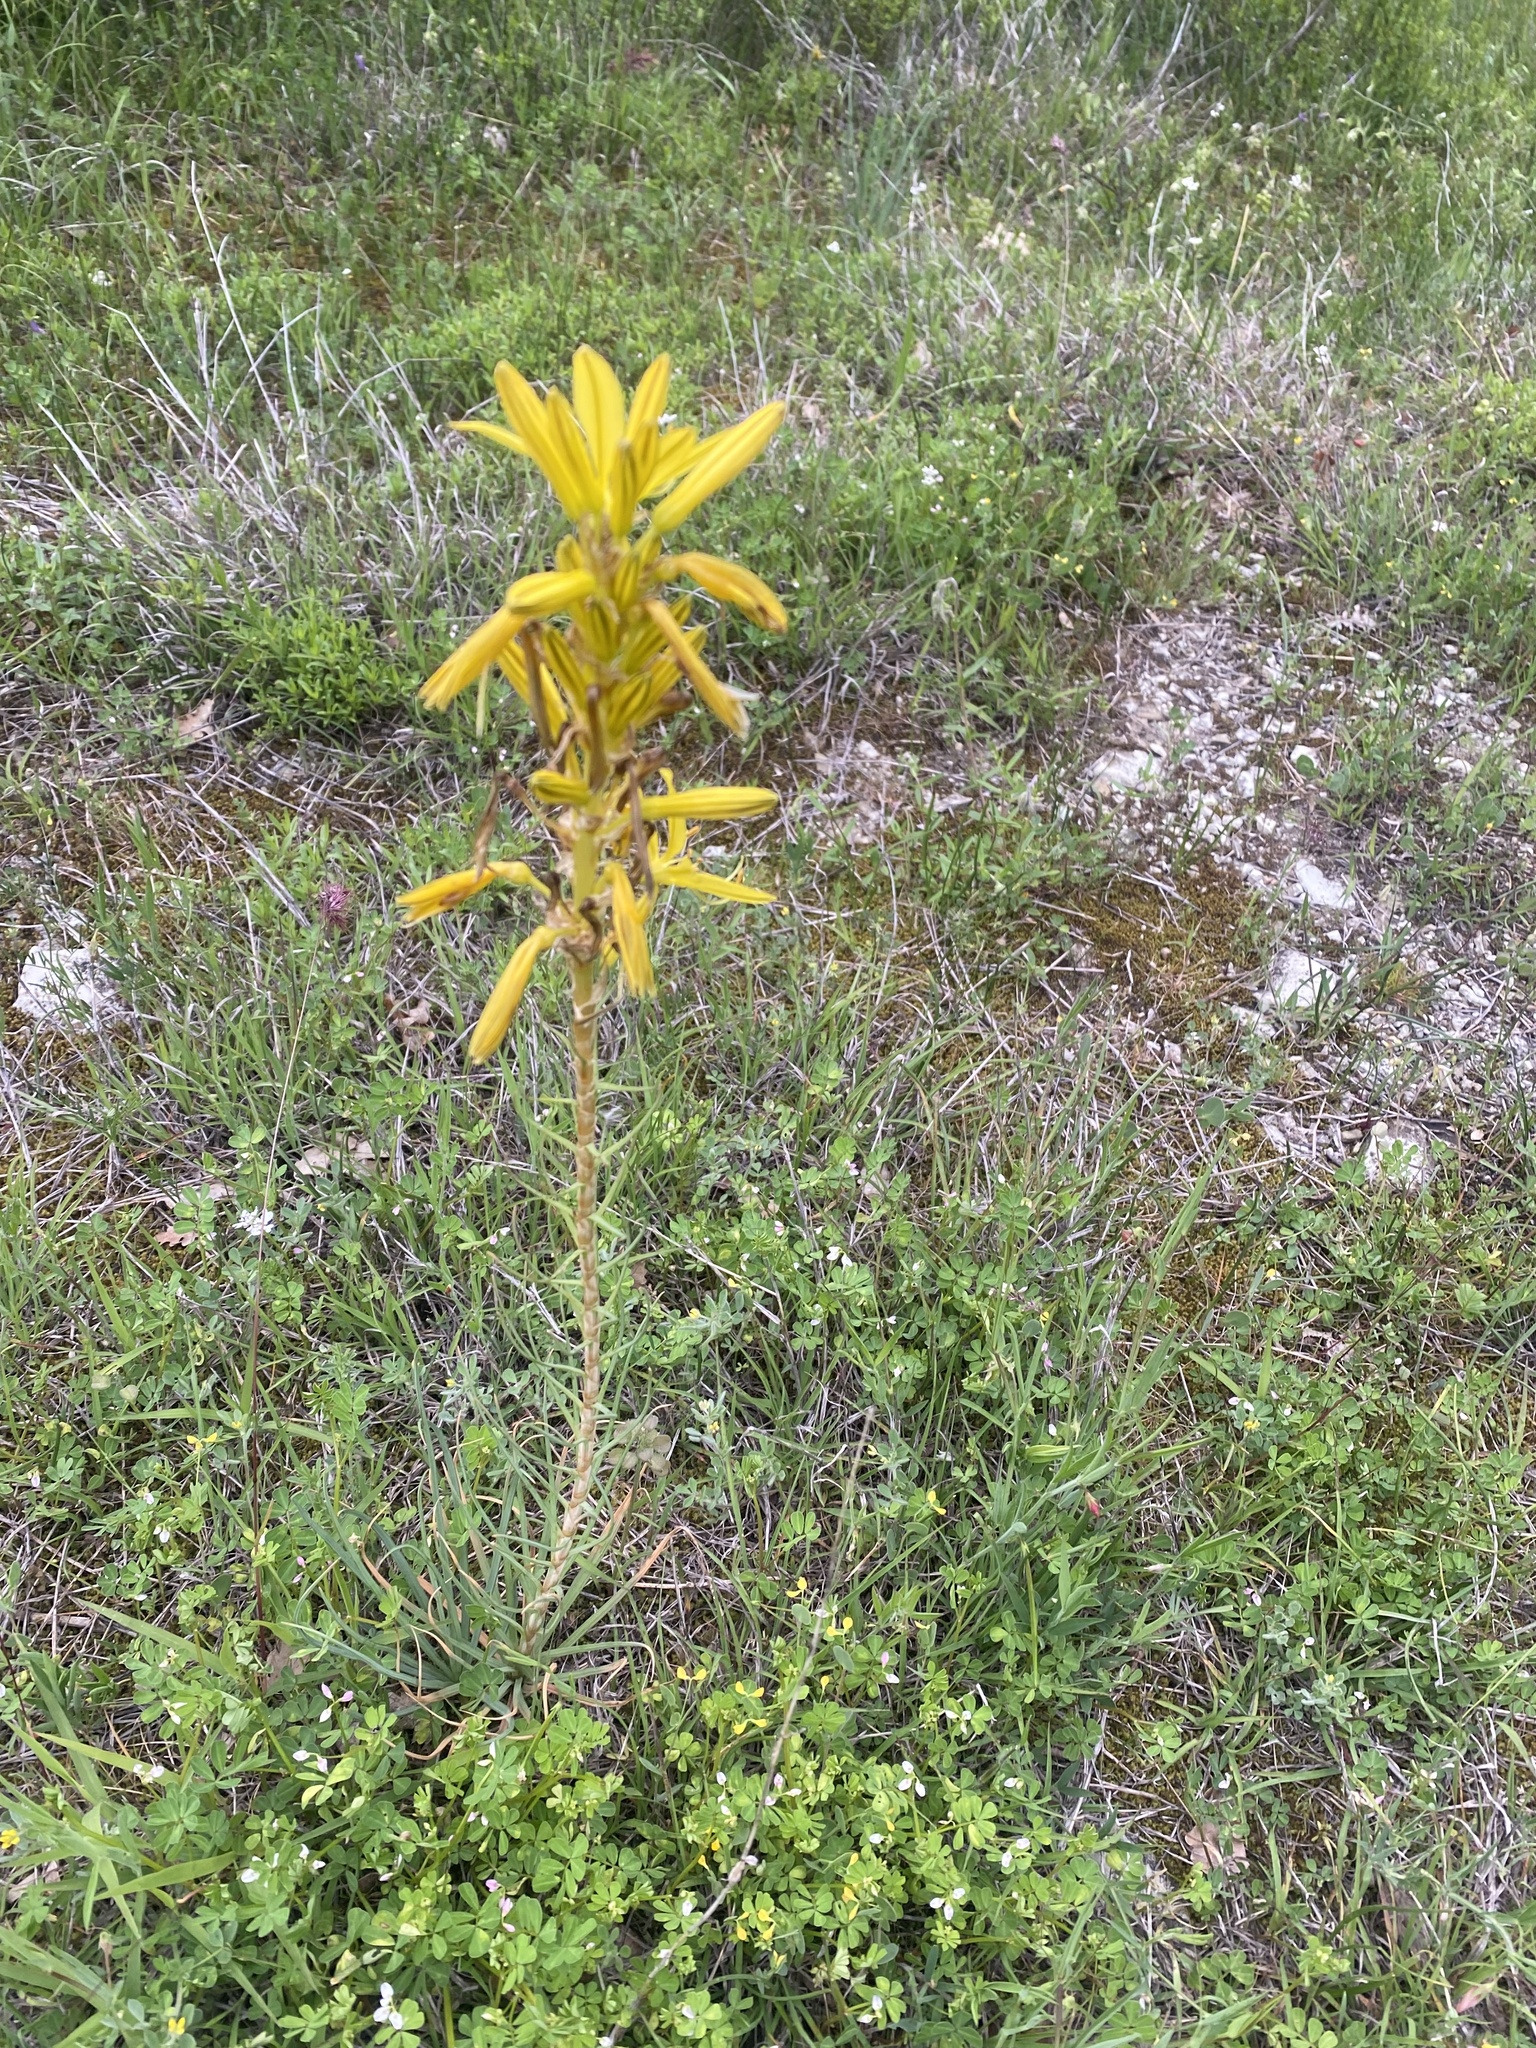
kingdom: Plantae
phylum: Tracheophyta
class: Liliopsida
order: Asparagales
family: Asphodelaceae
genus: Asphodeline
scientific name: Asphodeline lutea
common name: Yellow asphodel
